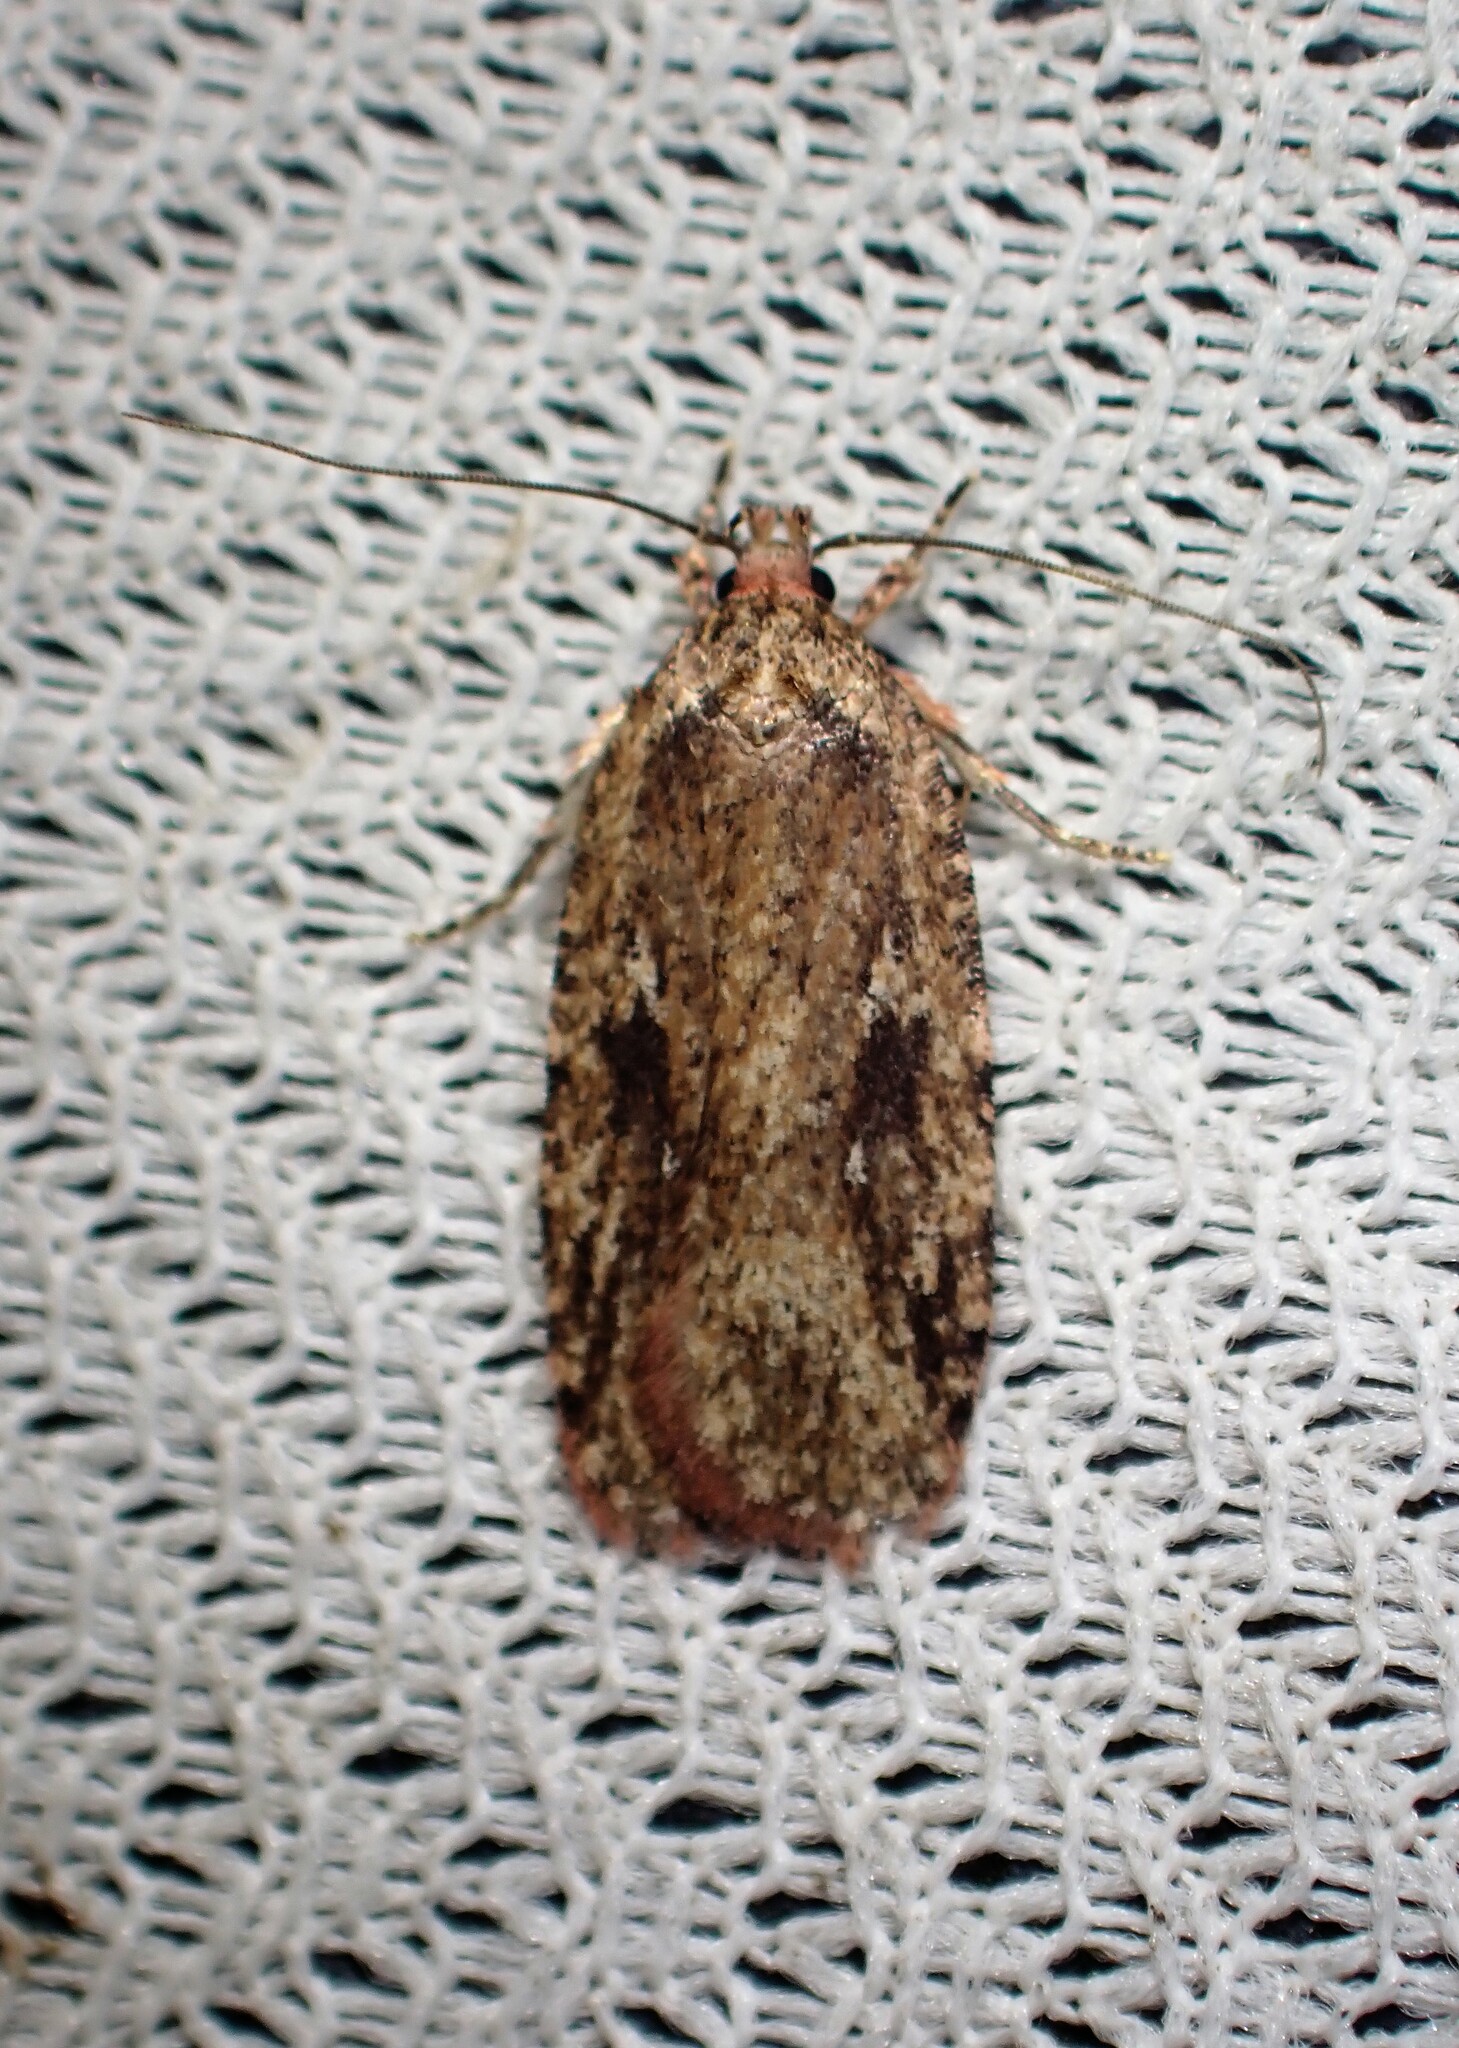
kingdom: Animalia
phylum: Arthropoda
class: Insecta
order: Lepidoptera
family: Depressariidae
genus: Agonopterix
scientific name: Agonopterix pulvipennella
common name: Goldenrod leafffolder
